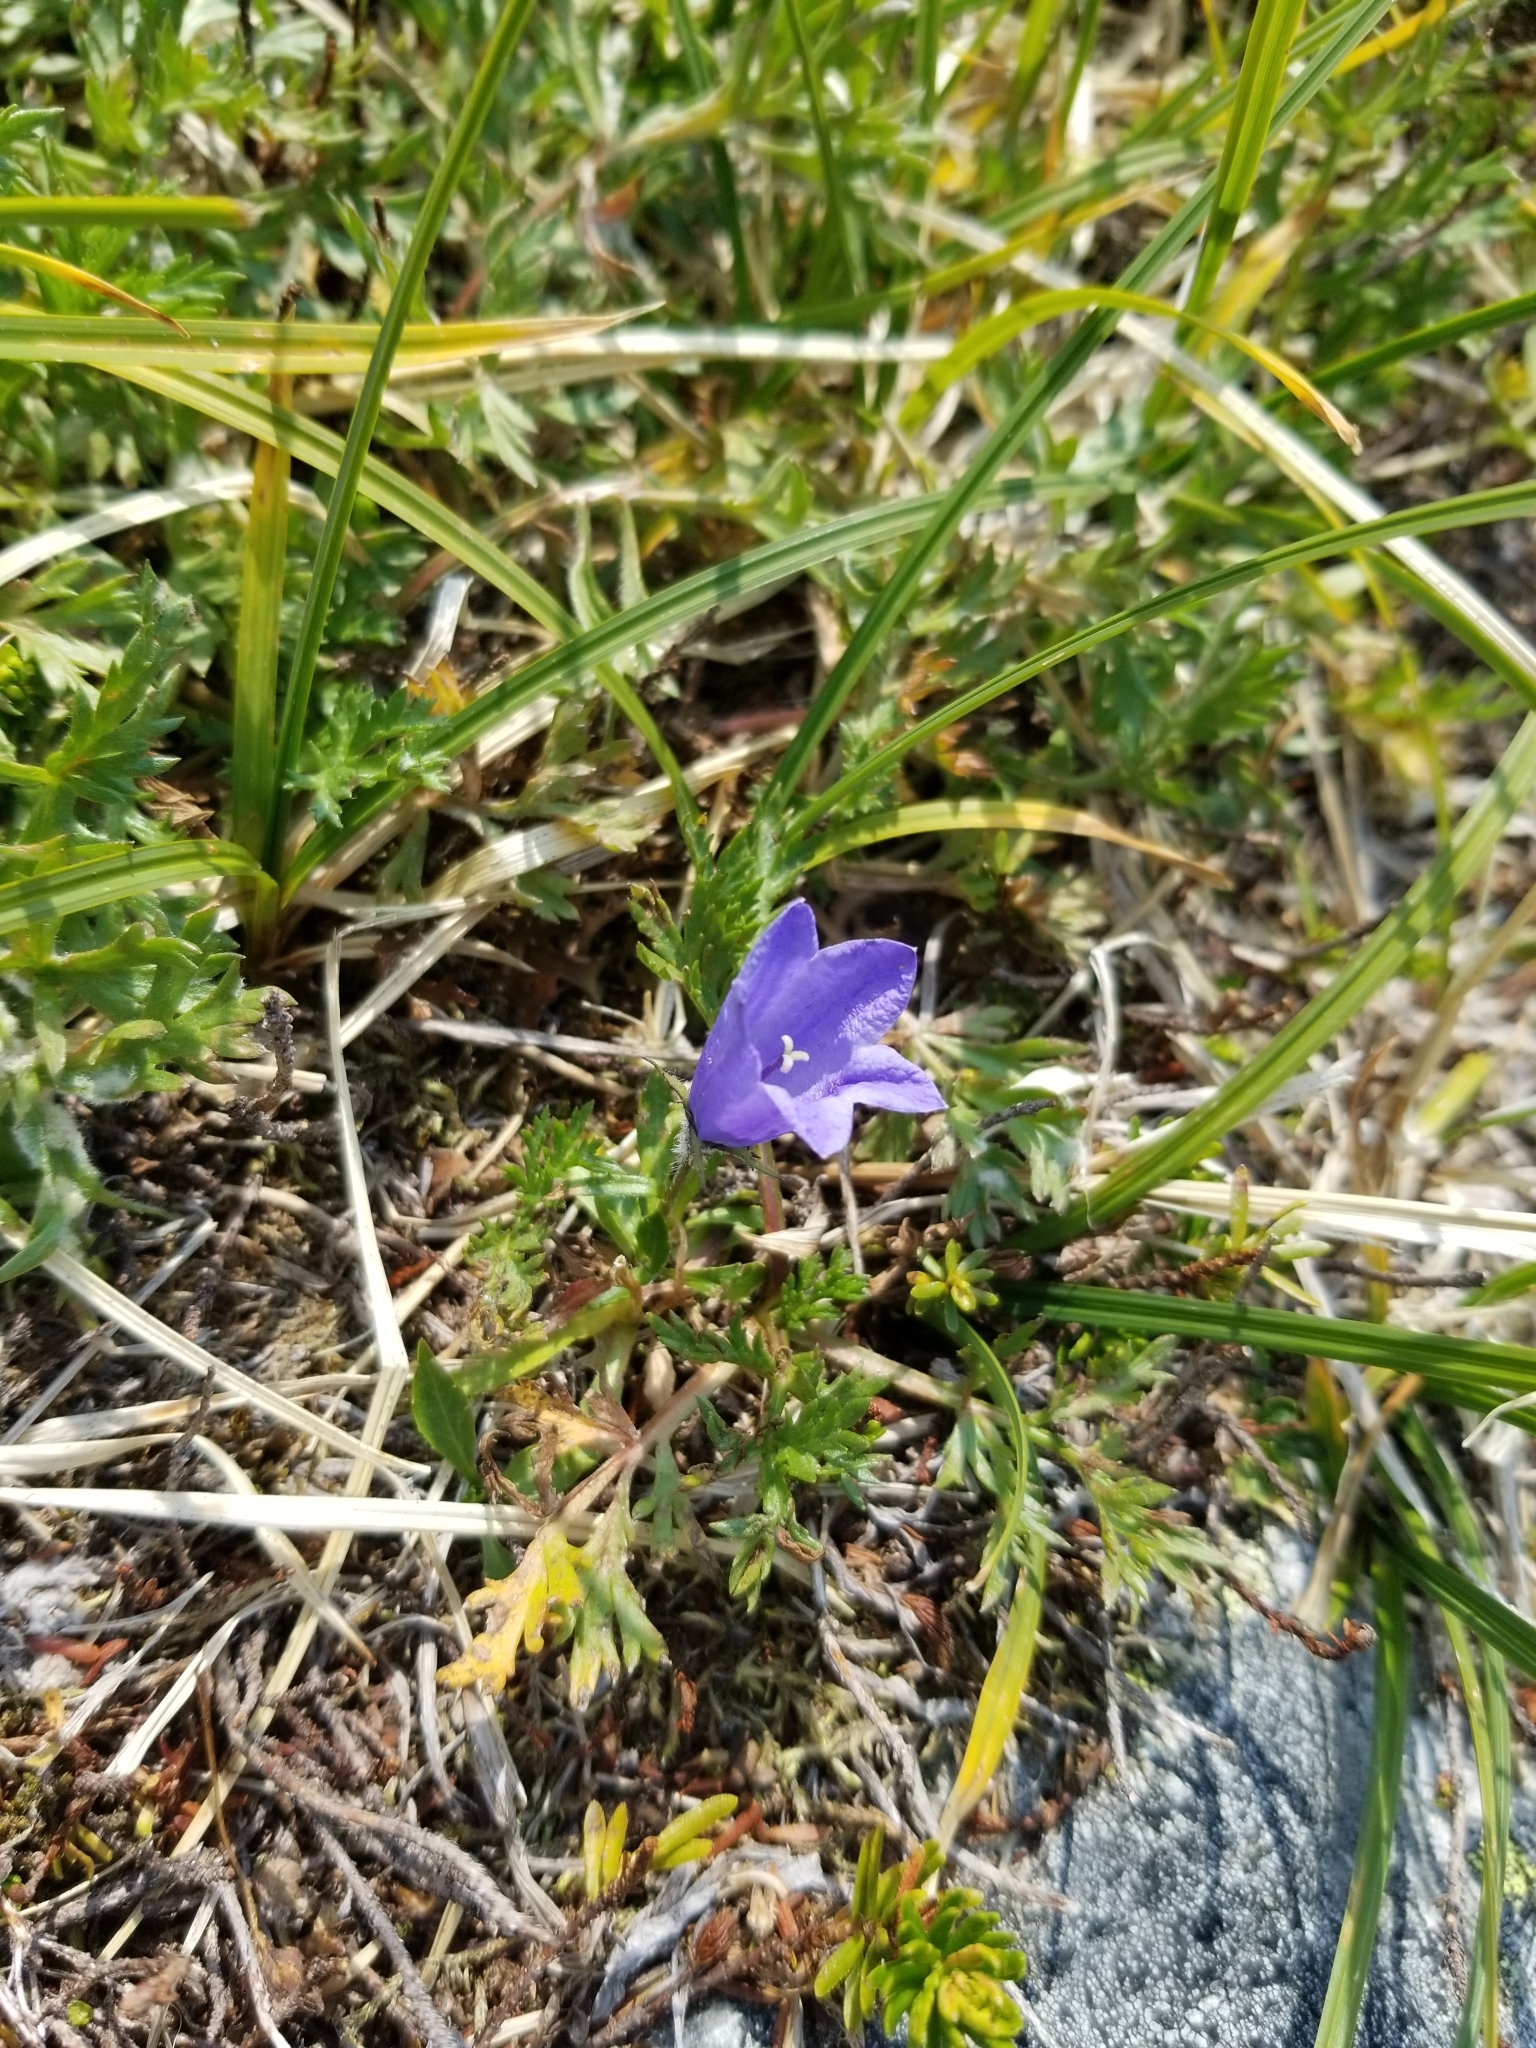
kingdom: Plantae
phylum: Tracheophyta
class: Magnoliopsida
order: Asterales
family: Campanulaceae
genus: Campanula
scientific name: Campanula lasiocarpa
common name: Mountain harebell
